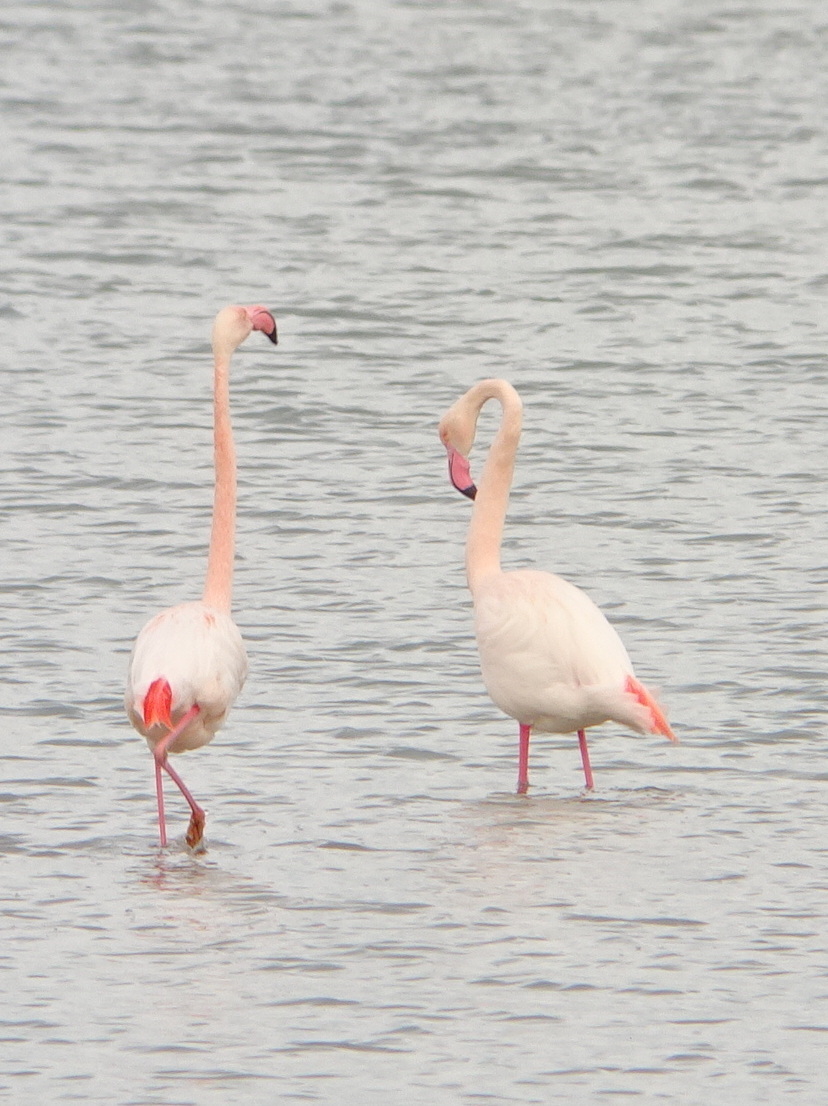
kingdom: Animalia
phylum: Chordata
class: Aves
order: Phoenicopteriformes
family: Phoenicopteridae
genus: Phoenicopterus
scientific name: Phoenicopterus roseus
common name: Greater flamingo
